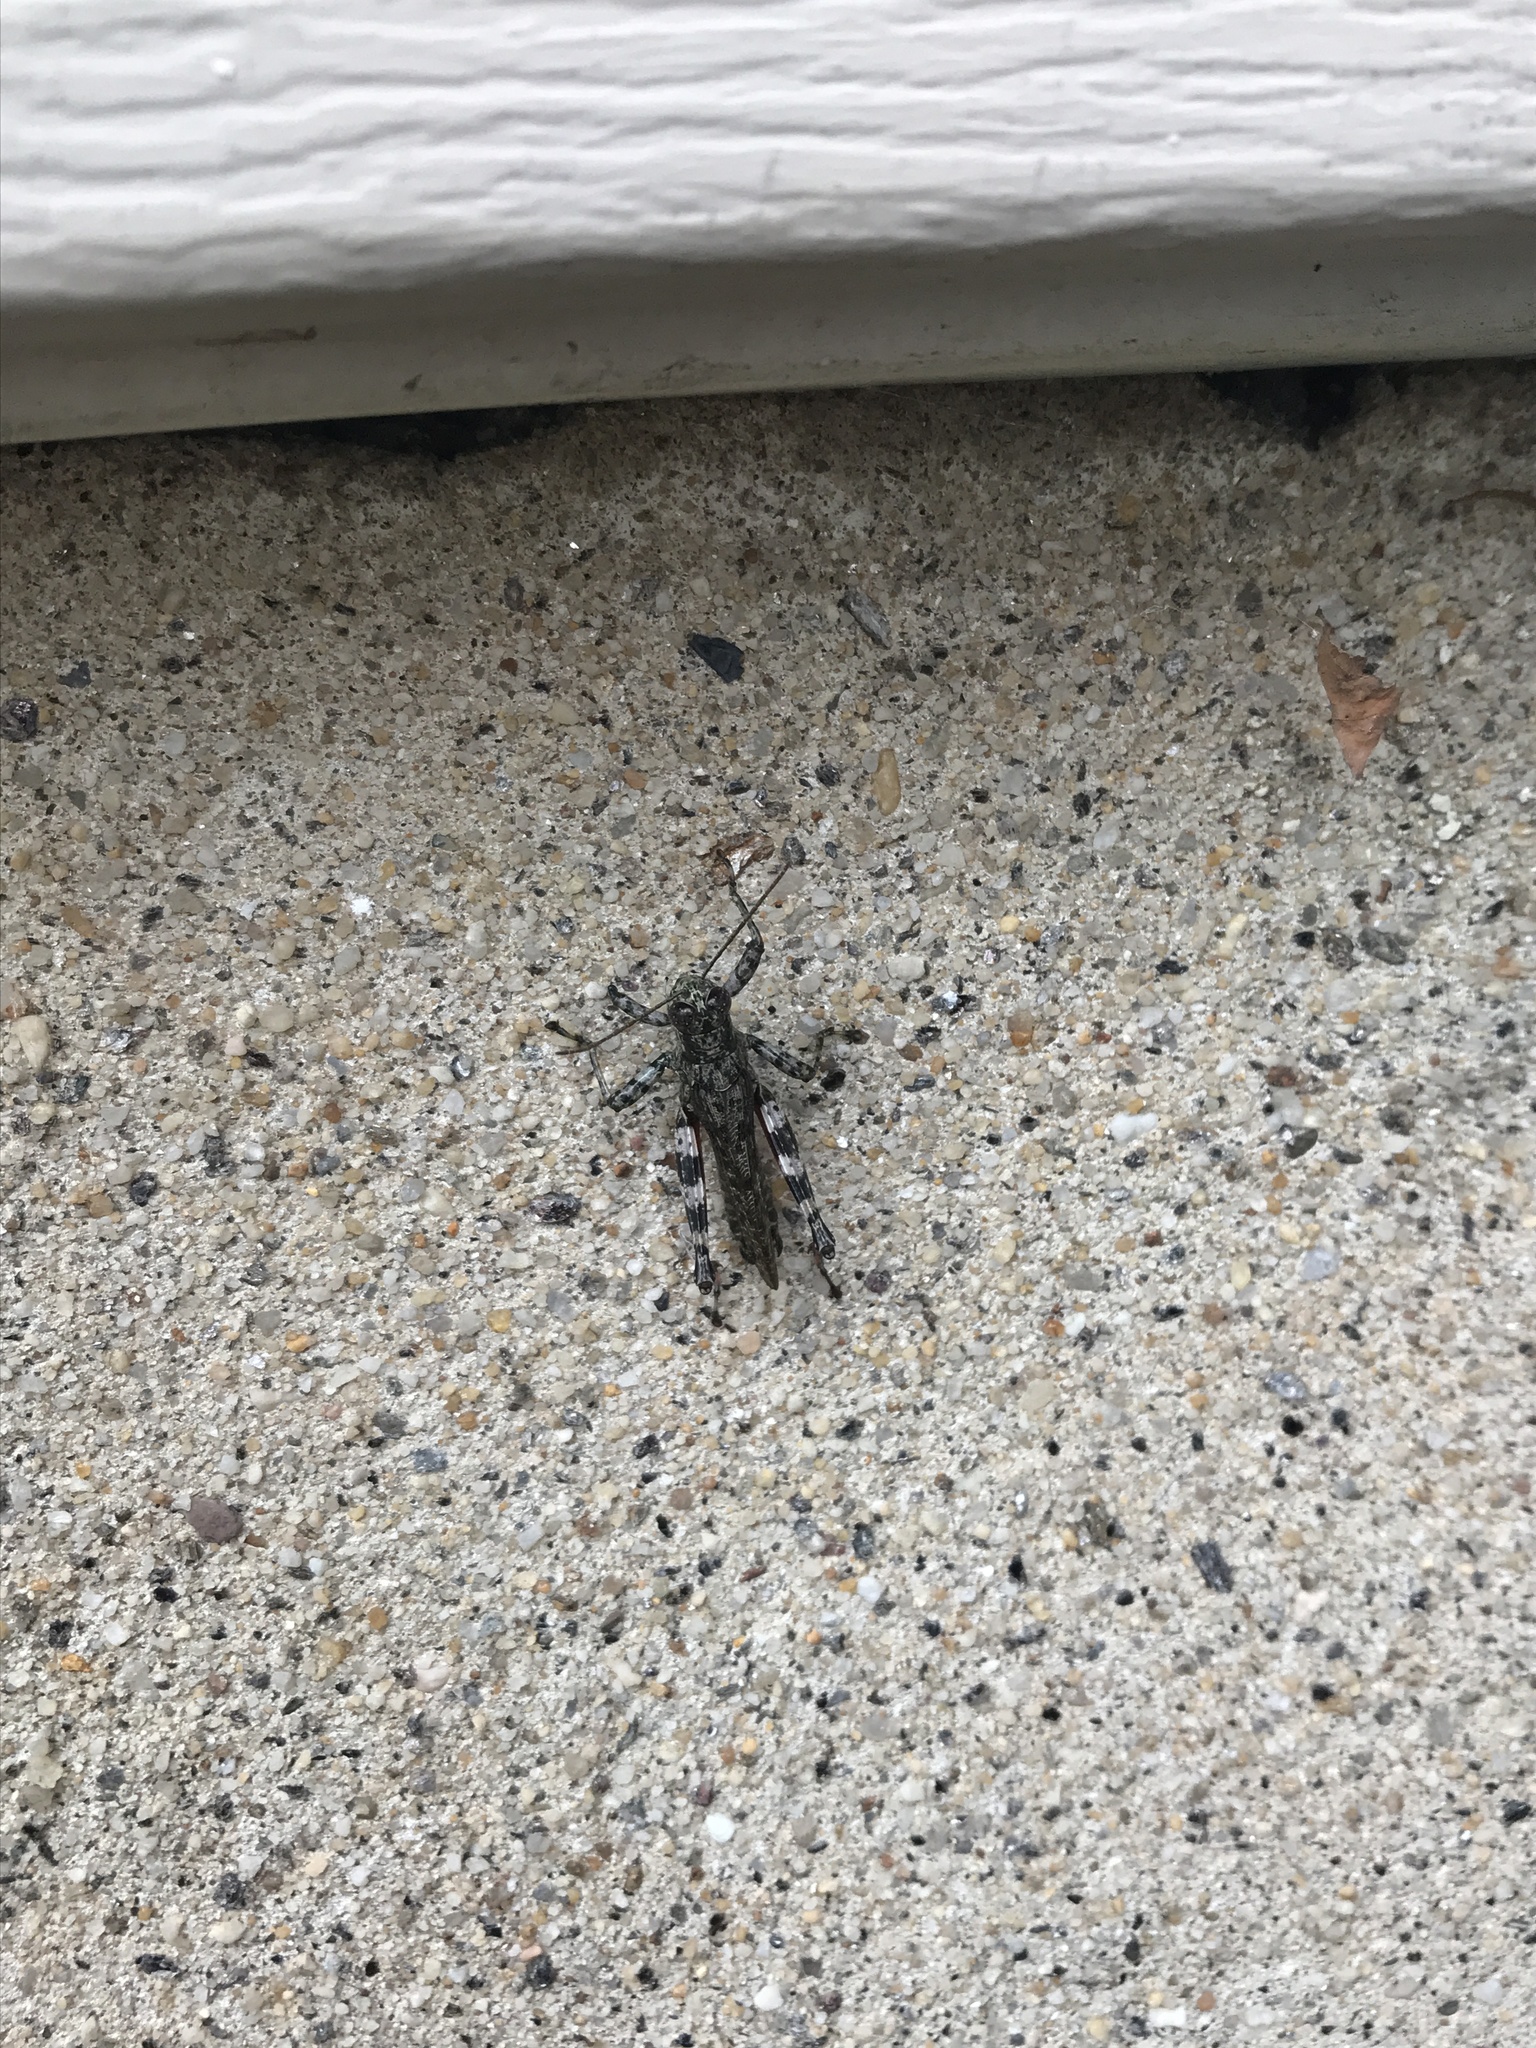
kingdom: Animalia
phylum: Arthropoda
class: Insecta
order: Orthoptera
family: Acrididae
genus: Melanoplus
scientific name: Melanoplus punctulatus
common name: Pine-tree spur-throat grasshopper
